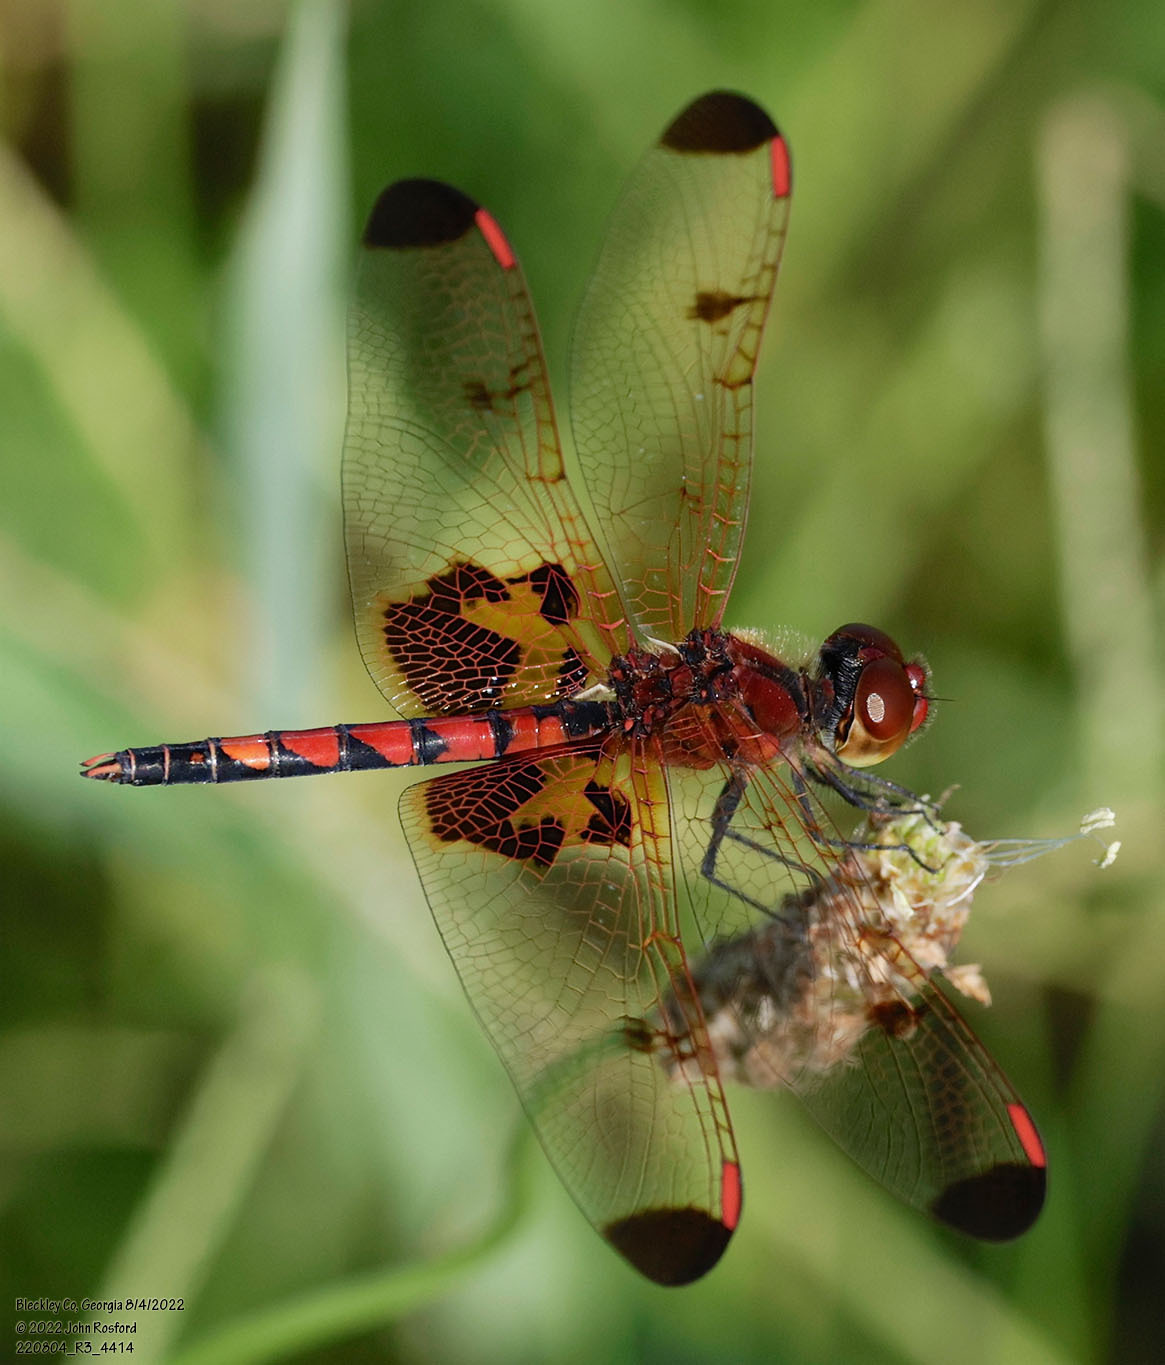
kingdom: Animalia
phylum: Arthropoda
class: Insecta
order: Odonata
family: Libellulidae
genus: Celithemis
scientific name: Celithemis elisa
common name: Calico pennant
